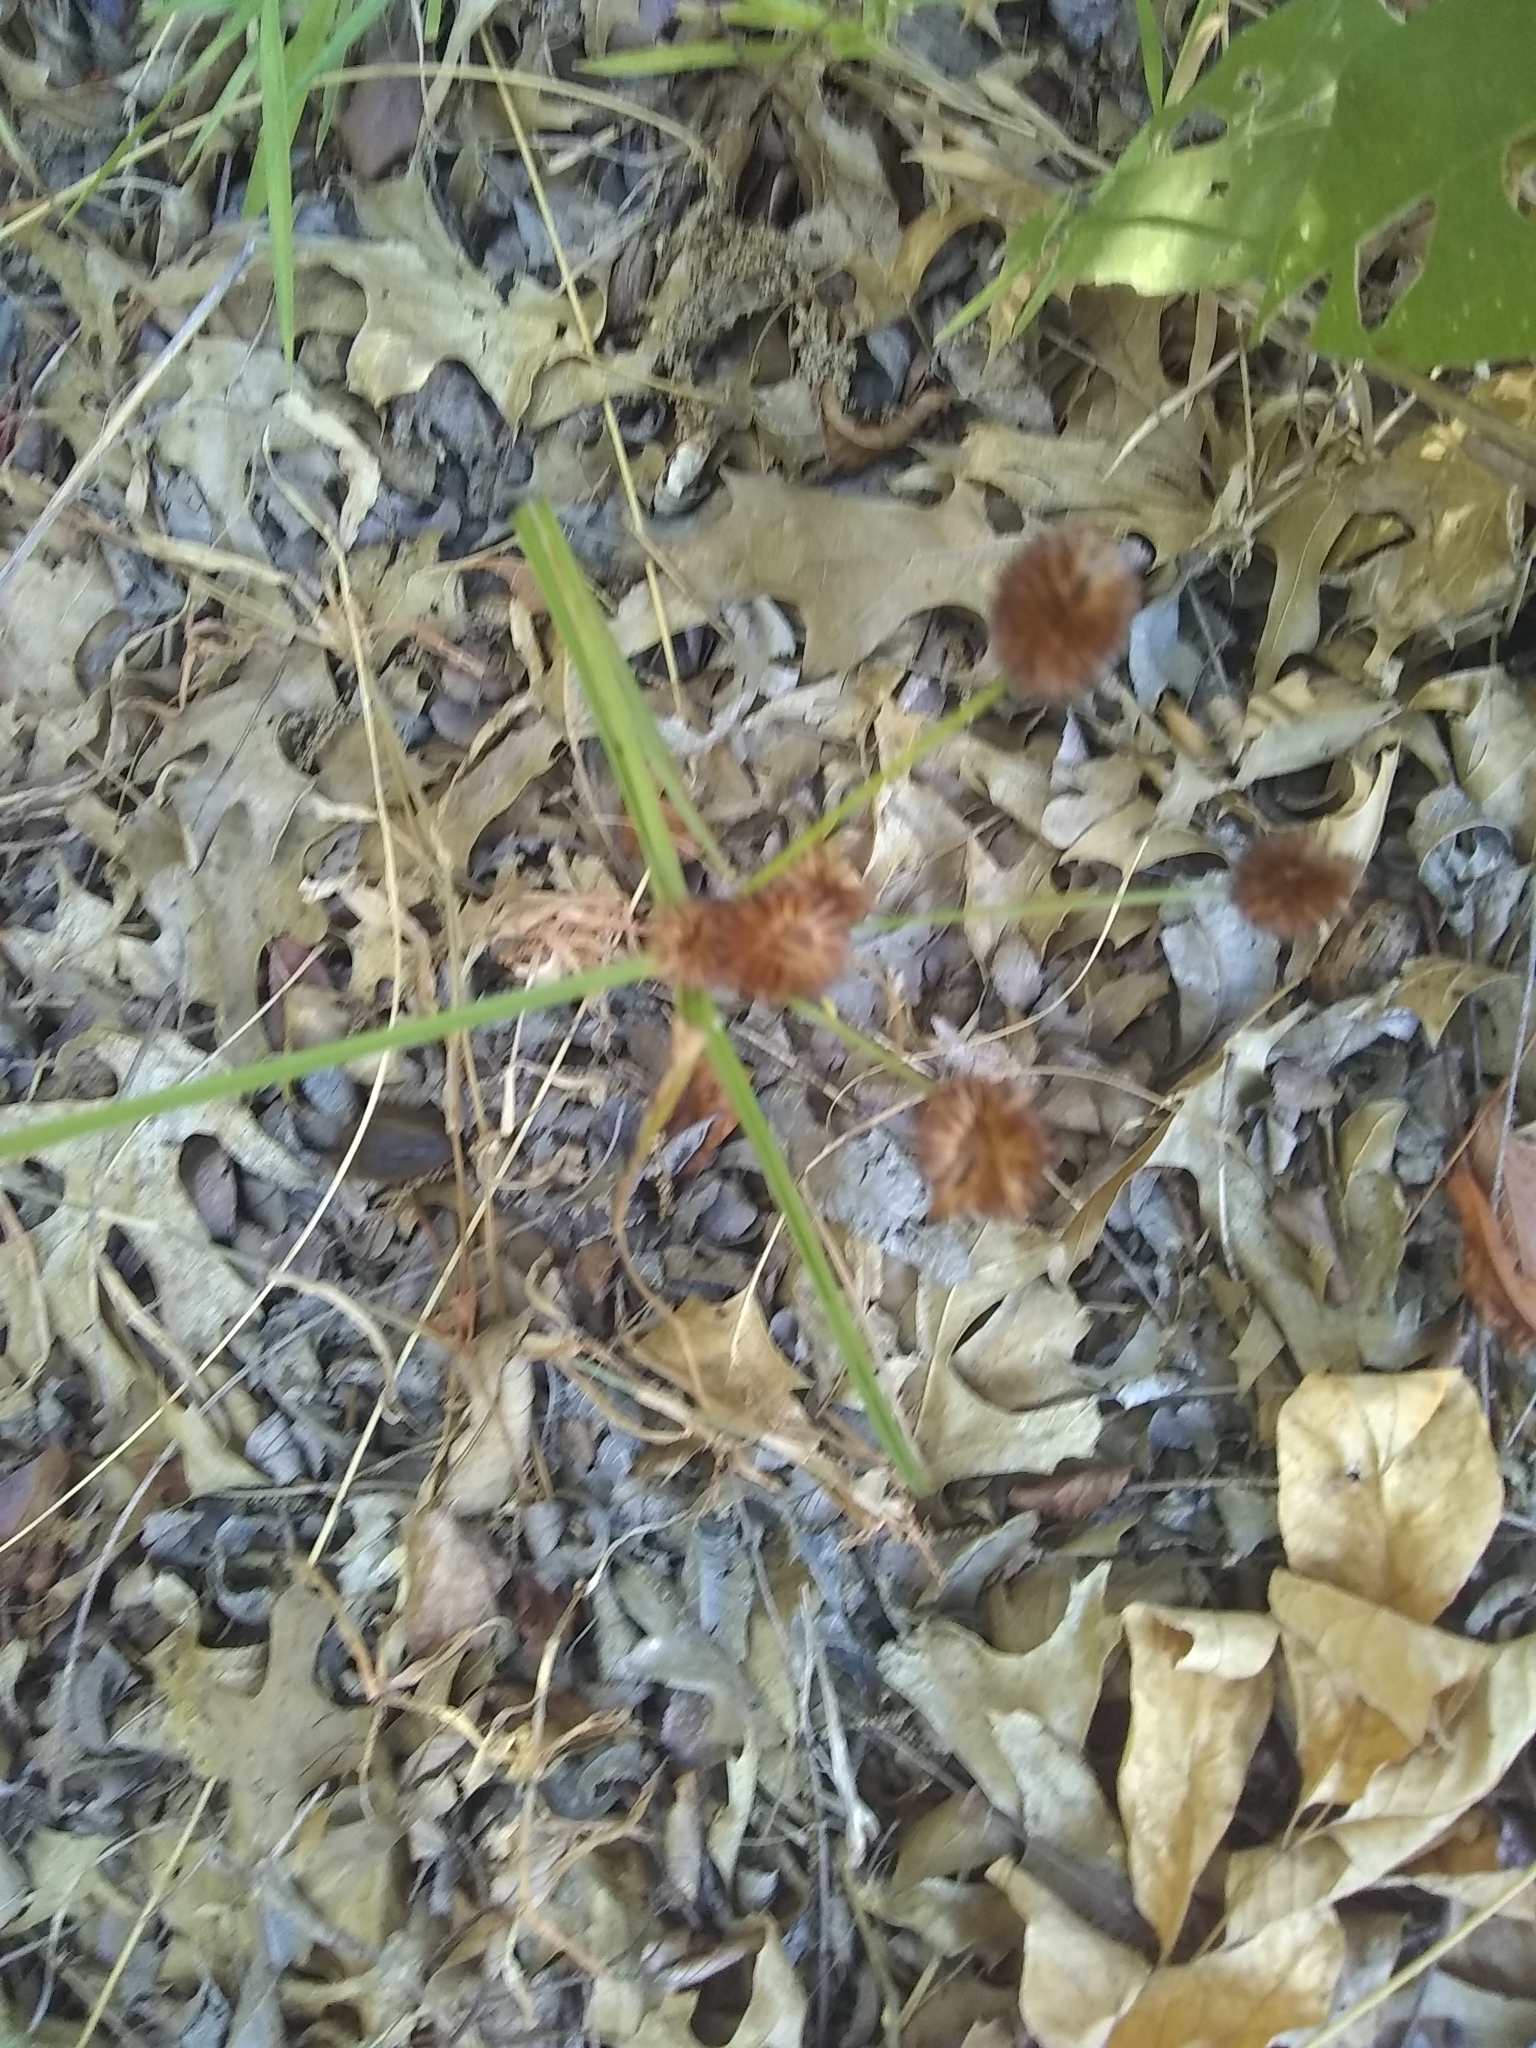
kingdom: Plantae
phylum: Tracheophyta
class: Liliopsida
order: Poales
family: Cyperaceae
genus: Cyperus
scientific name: Cyperus echinatus
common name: Teasel sedge
